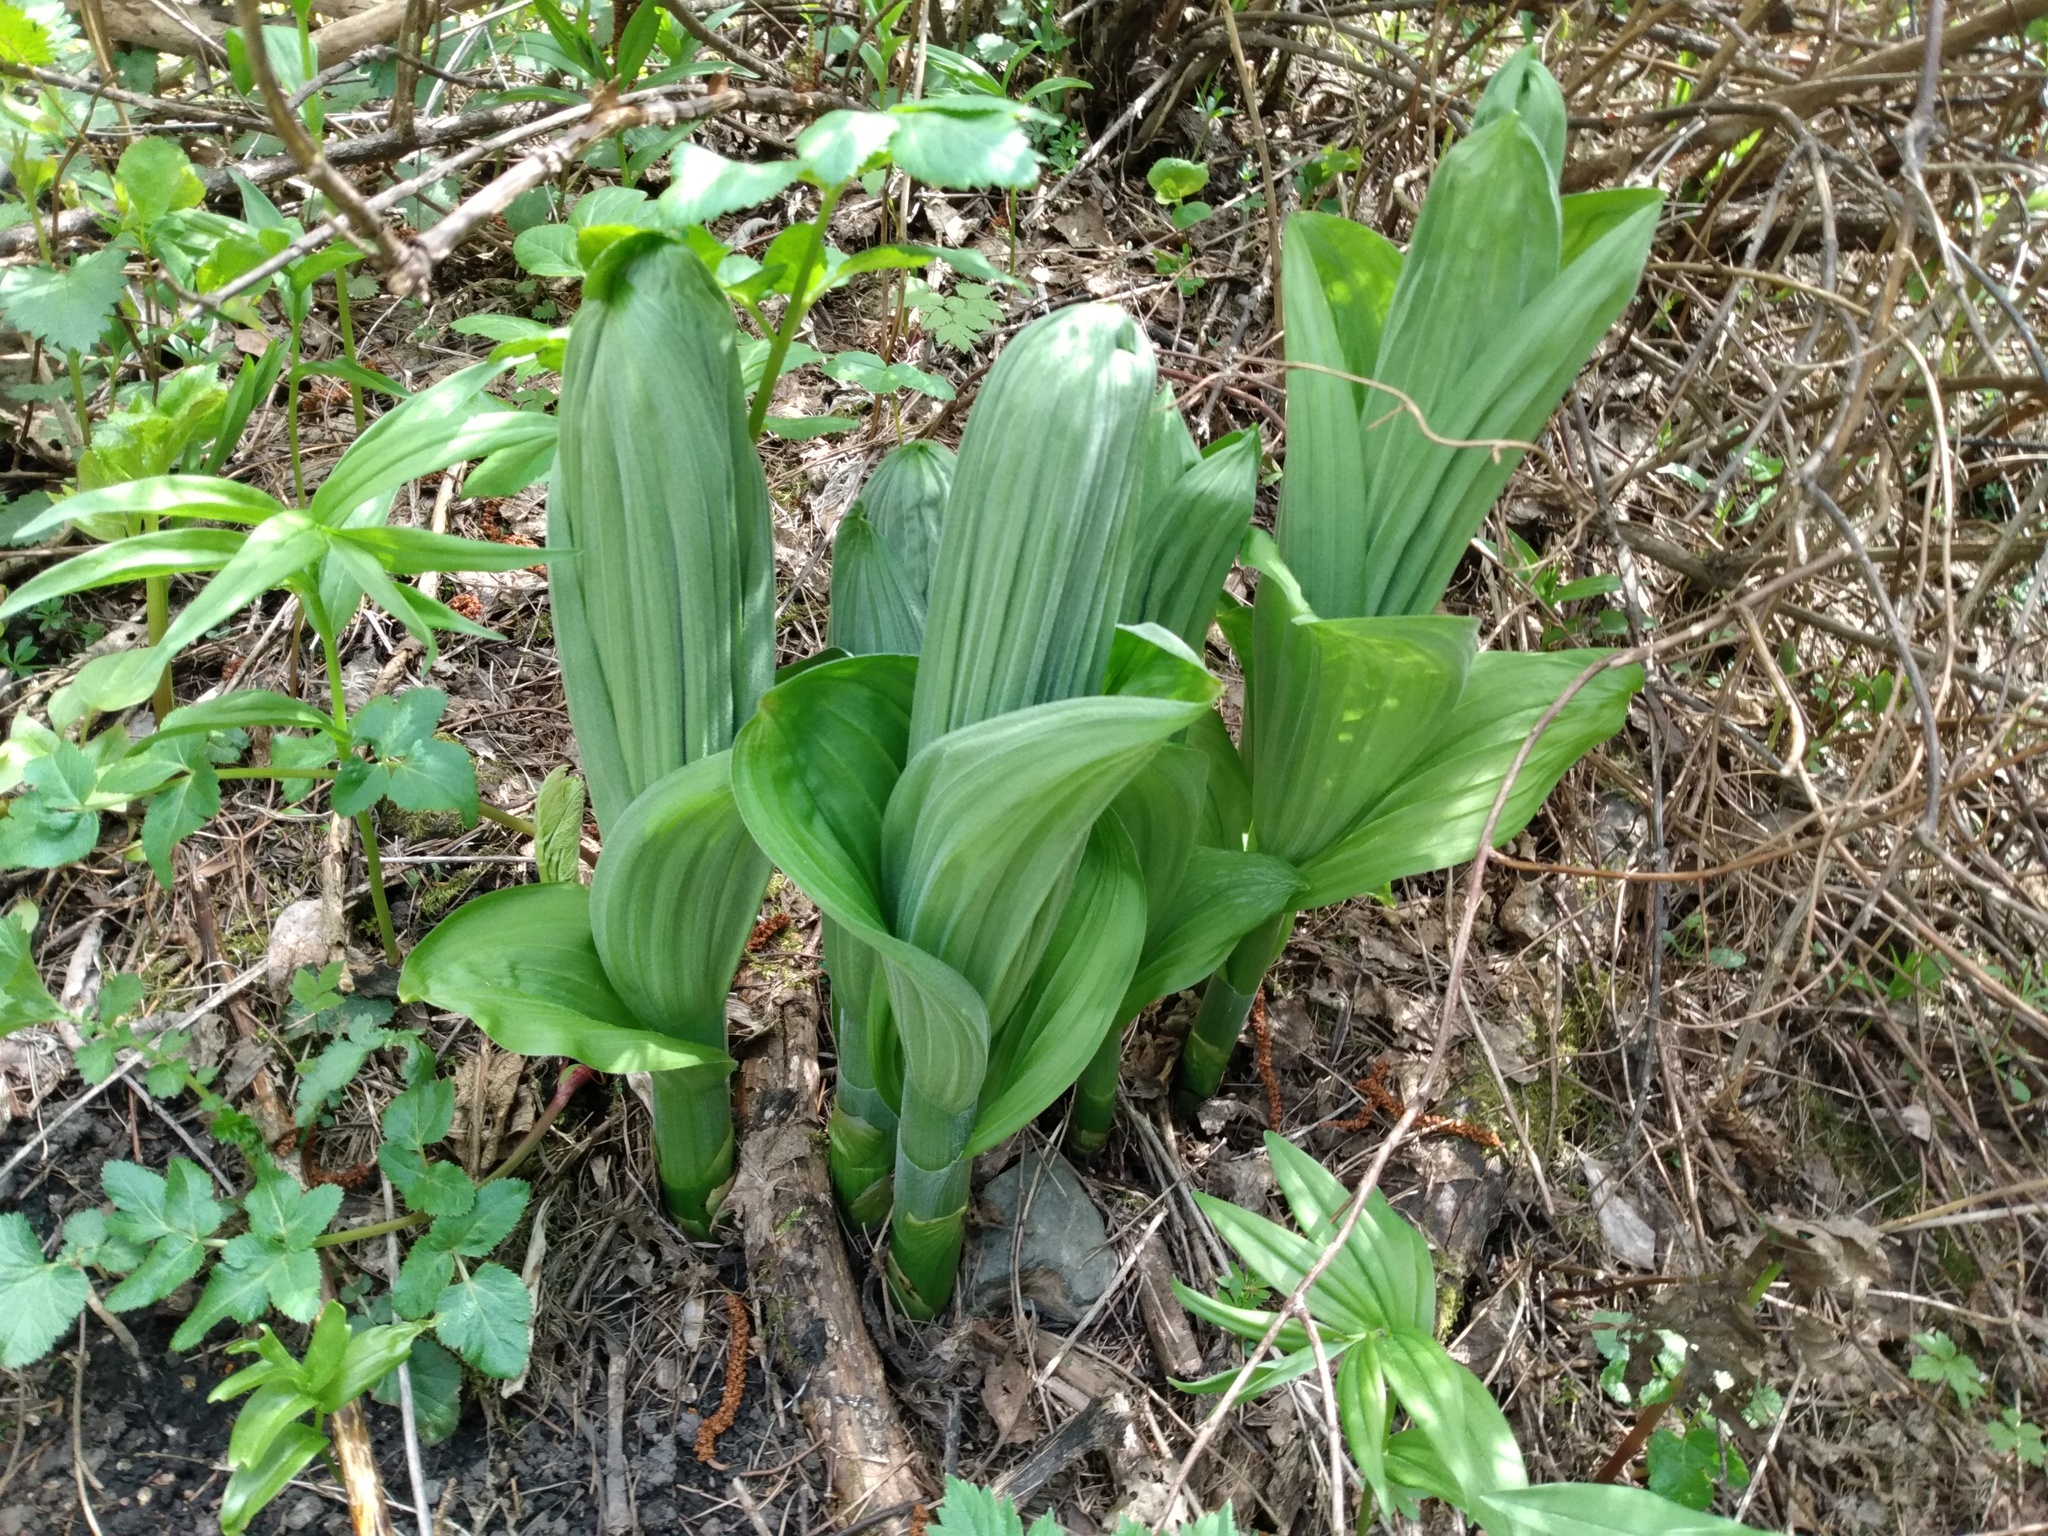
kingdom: Plantae
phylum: Tracheophyta
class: Liliopsida
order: Liliales
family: Melanthiaceae
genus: Veratrum
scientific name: Veratrum viride
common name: American false hellebore
